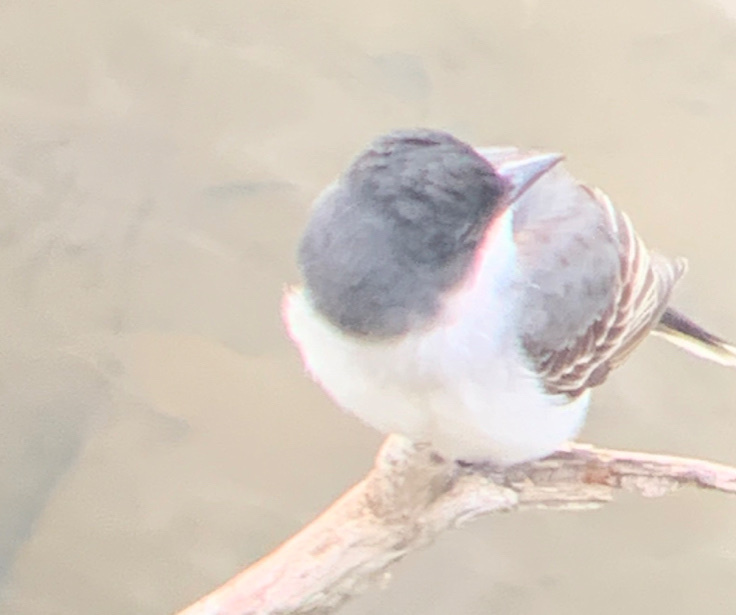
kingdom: Animalia
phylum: Chordata
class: Aves
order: Passeriformes
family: Tyrannidae
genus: Tyrannus
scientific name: Tyrannus tyrannus
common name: Eastern kingbird
